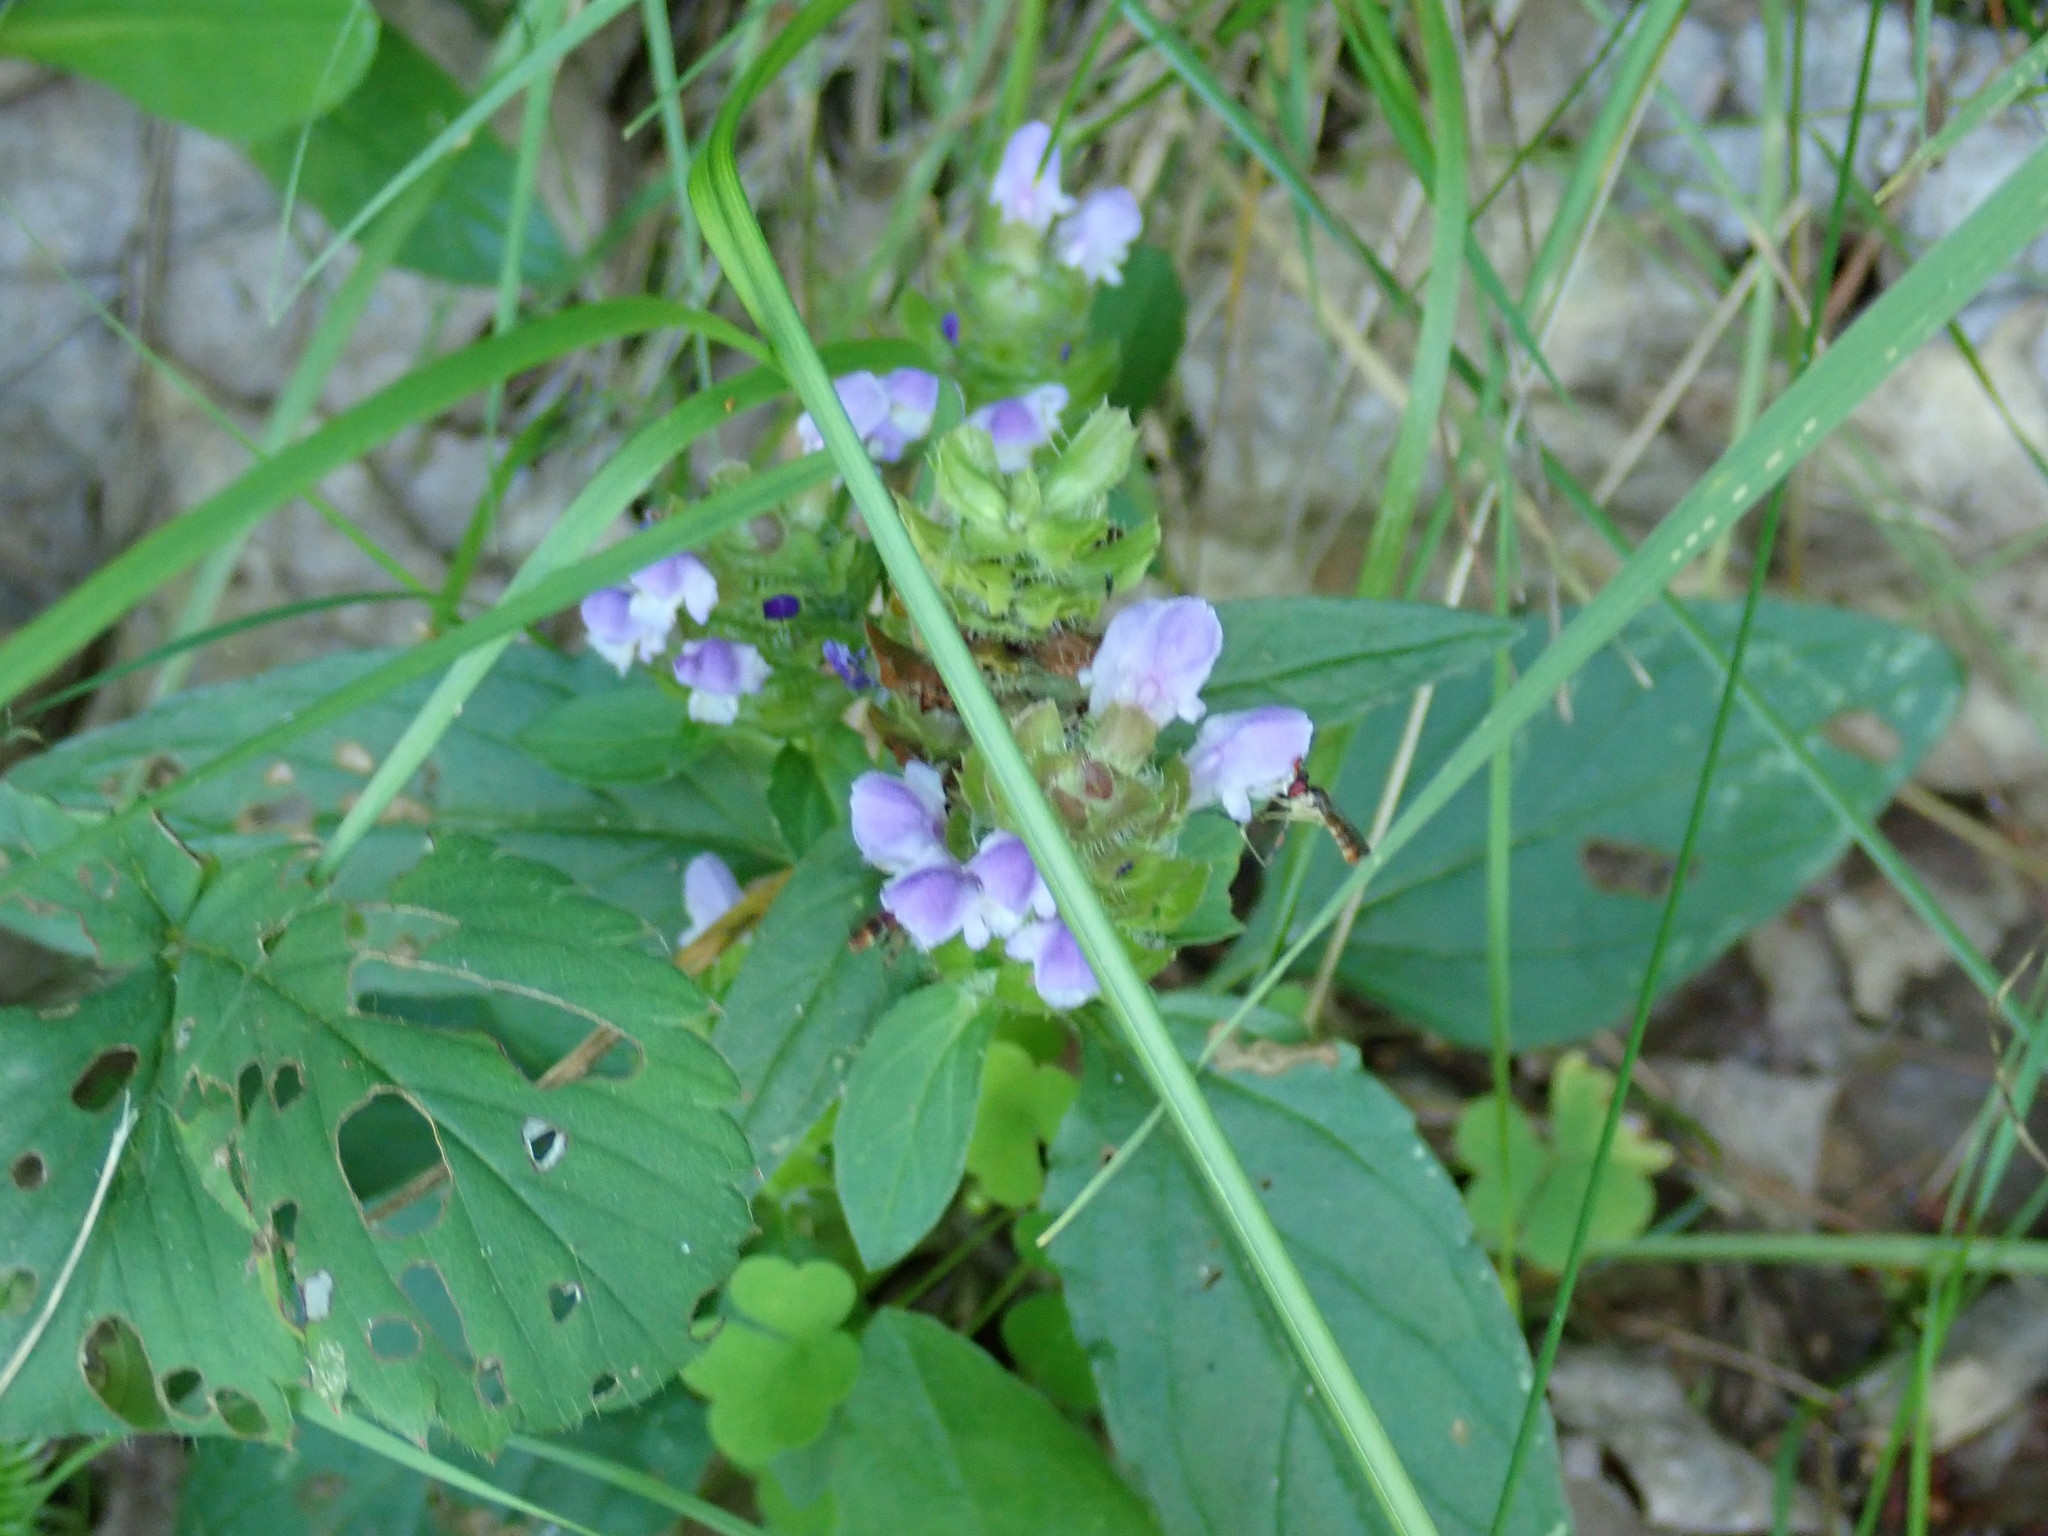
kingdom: Plantae
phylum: Tracheophyta
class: Magnoliopsida
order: Lamiales
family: Lamiaceae
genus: Prunella
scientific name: Prunella vulgaris
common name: Heal-all
